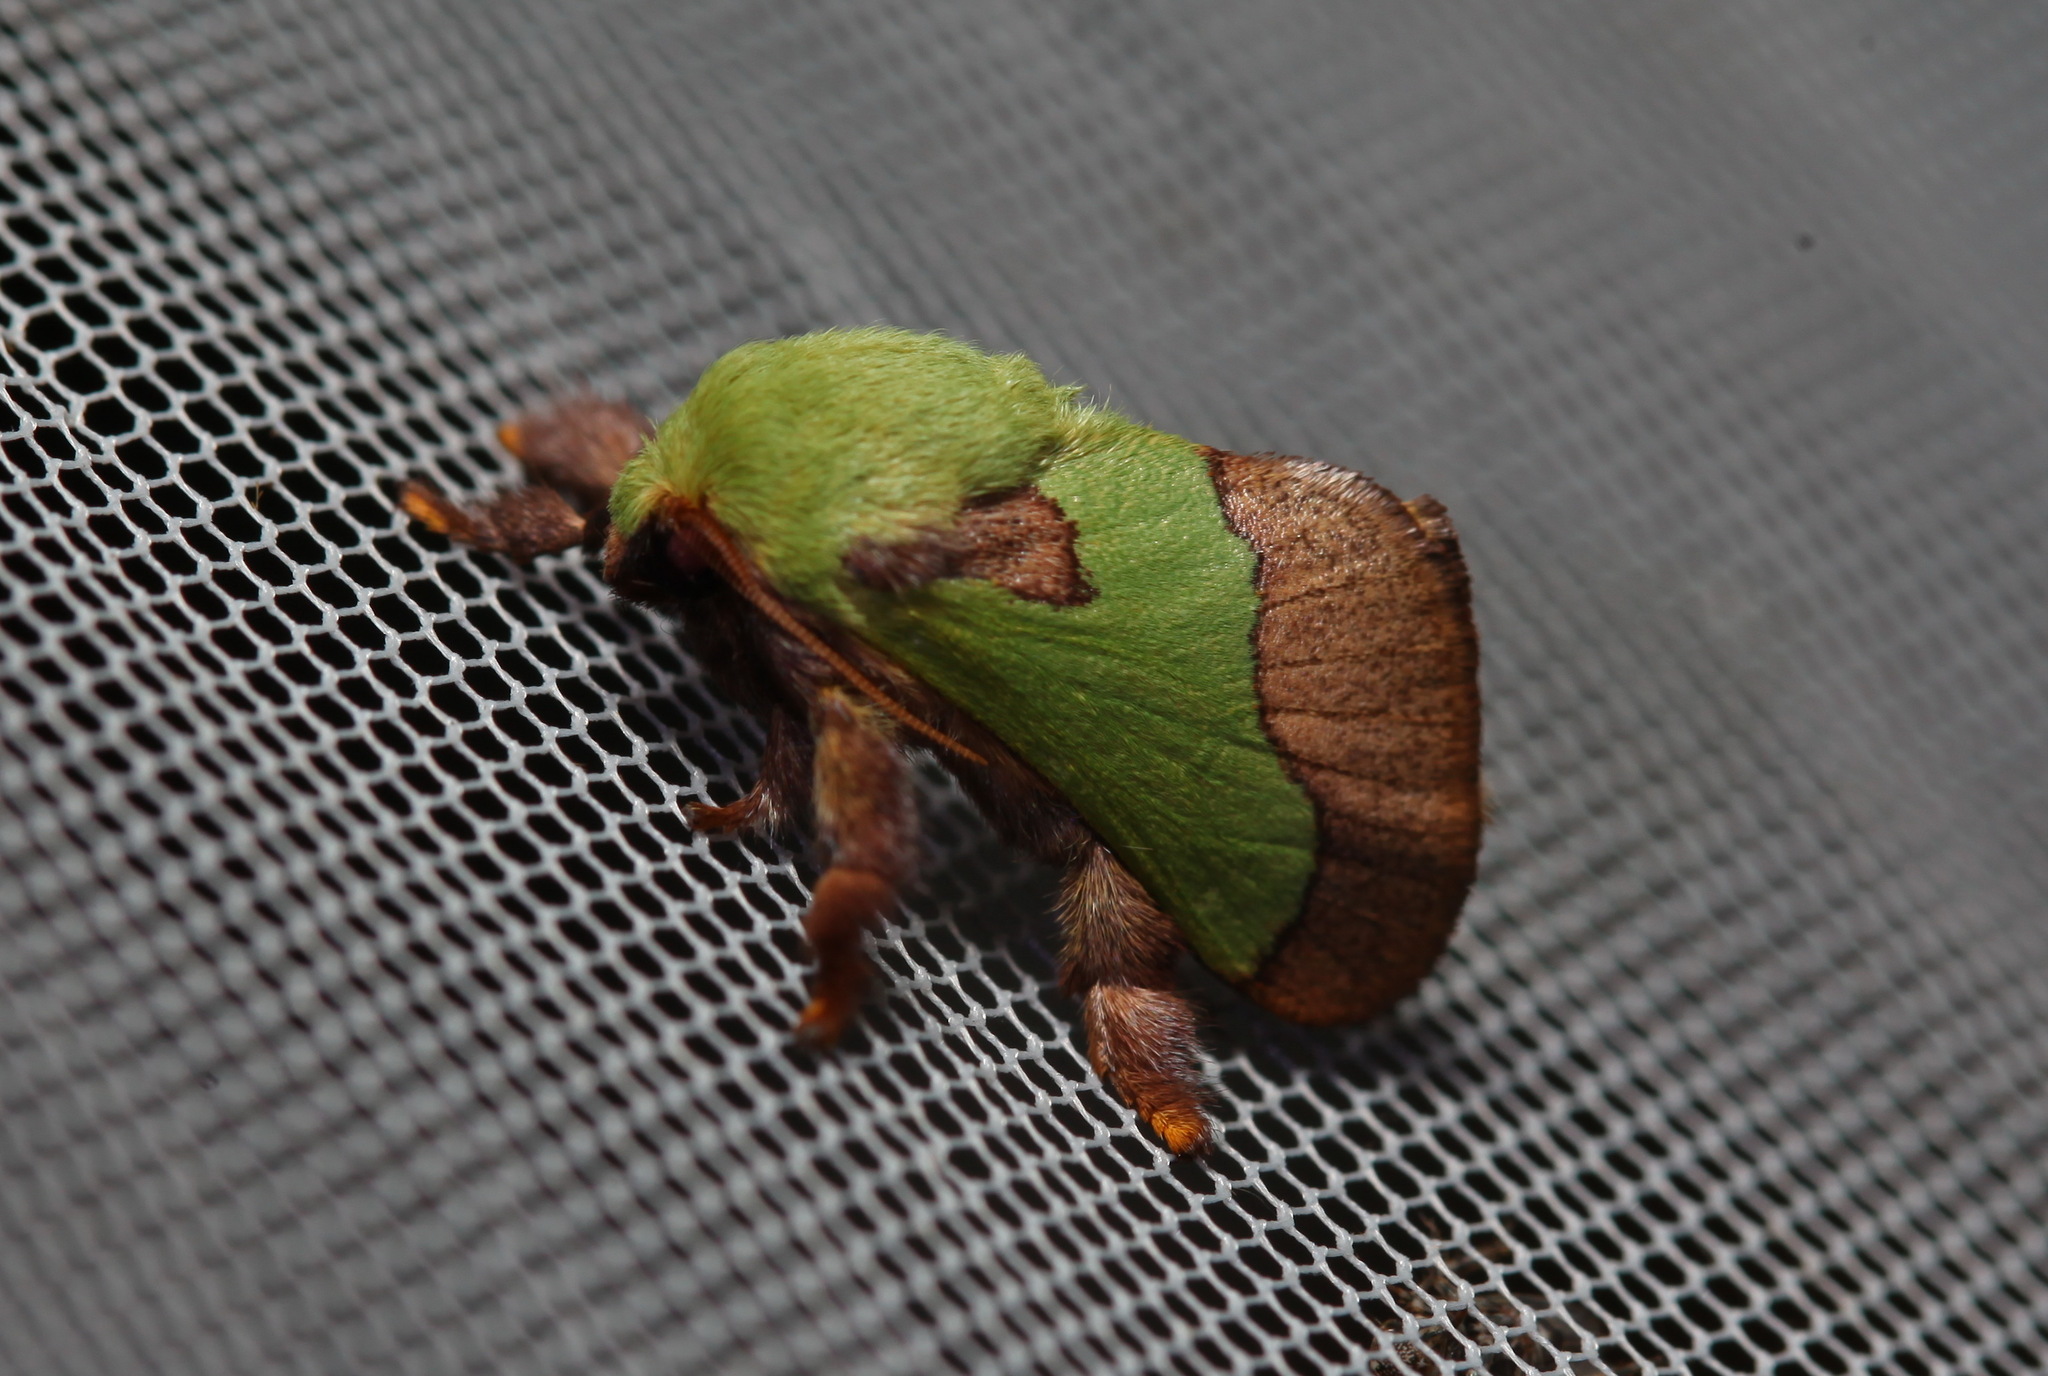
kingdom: Animalia
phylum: Arthropoda
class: Insecta
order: Lepidoptera
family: Limacodidae
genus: Parasa
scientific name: Parasa latistriga
